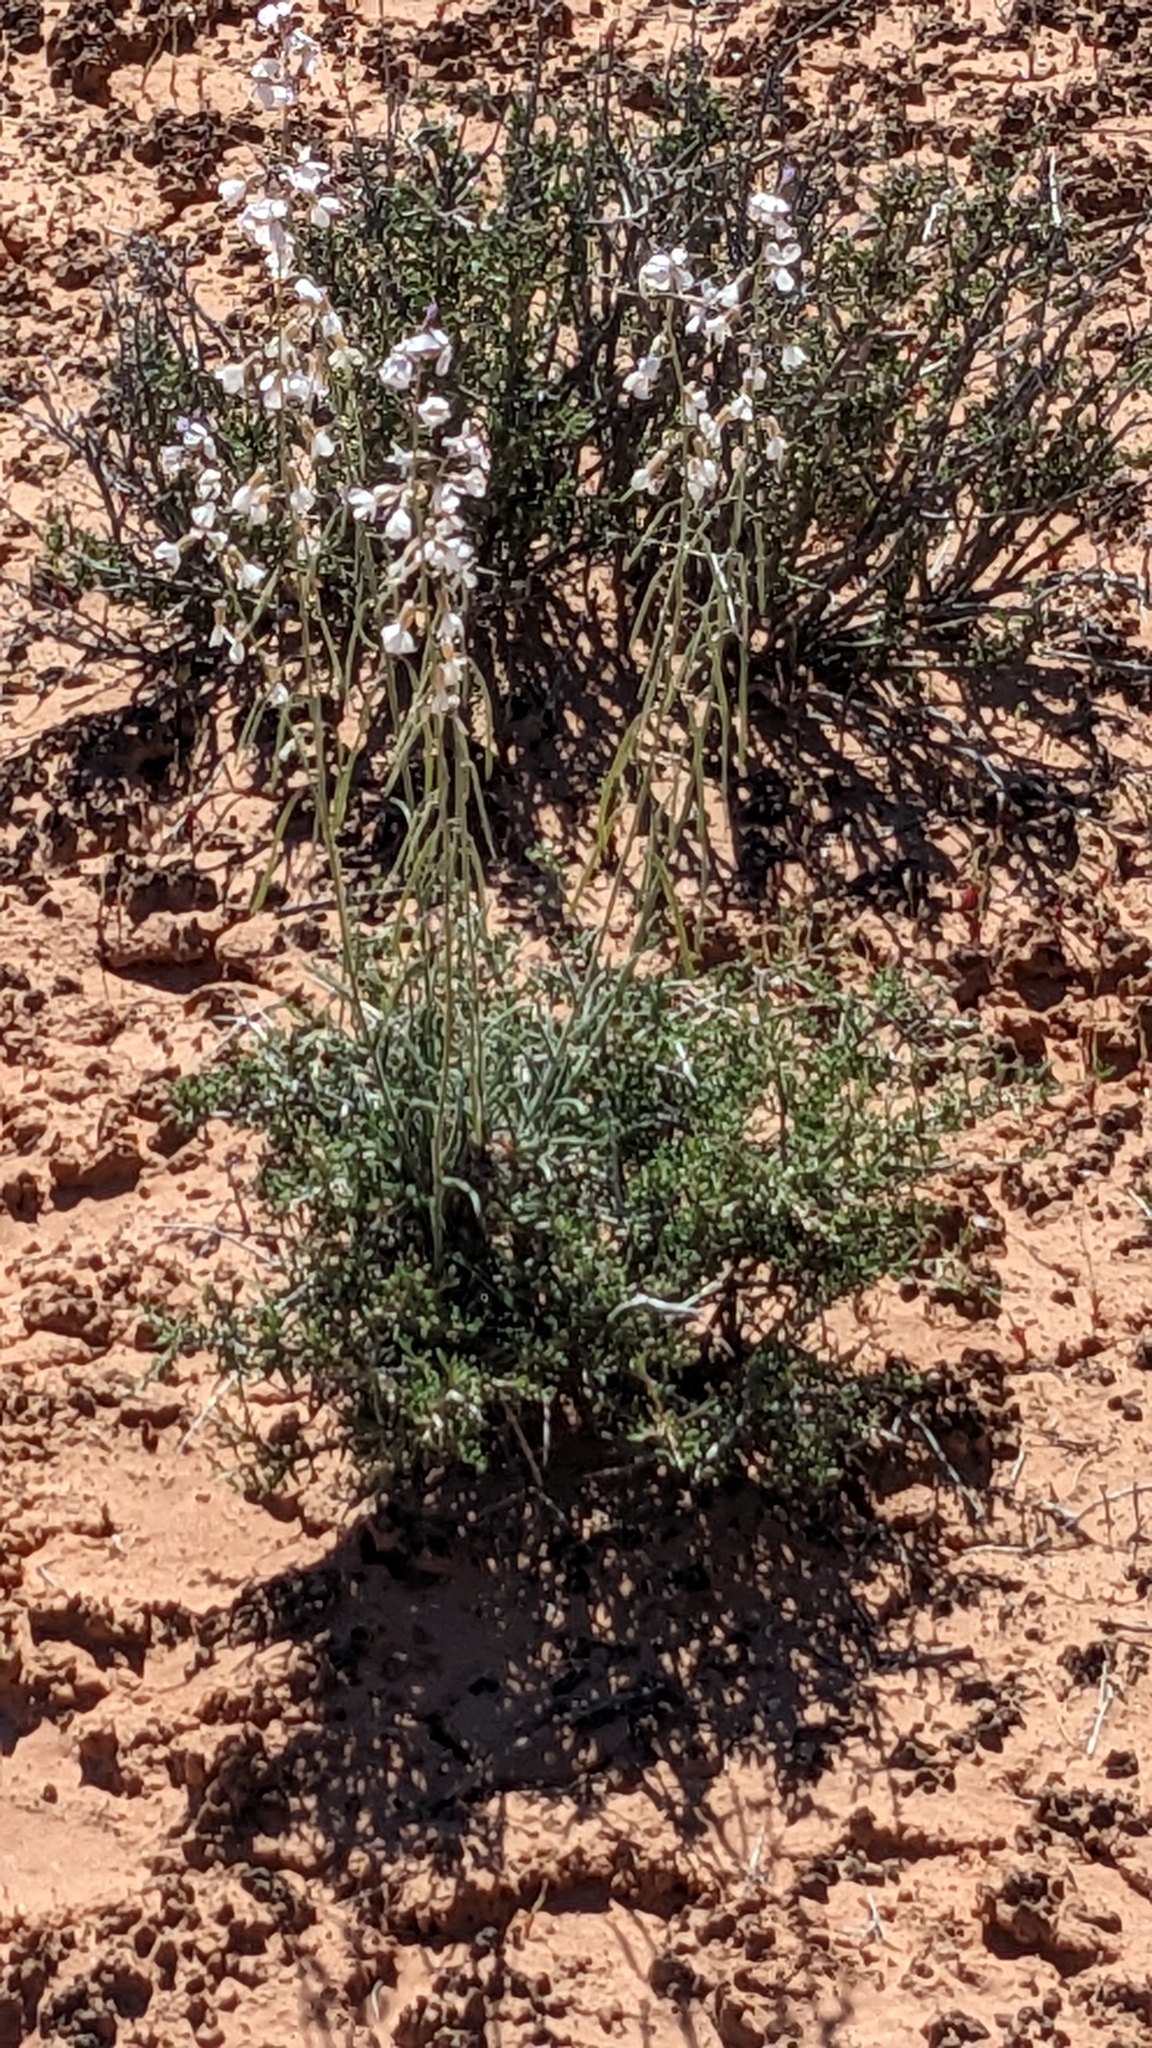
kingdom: Plantae
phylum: Tracheophyta
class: Magnoliopsida
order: Brassicales
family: Brassicaceae
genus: Boechera
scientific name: Boechera formosa
